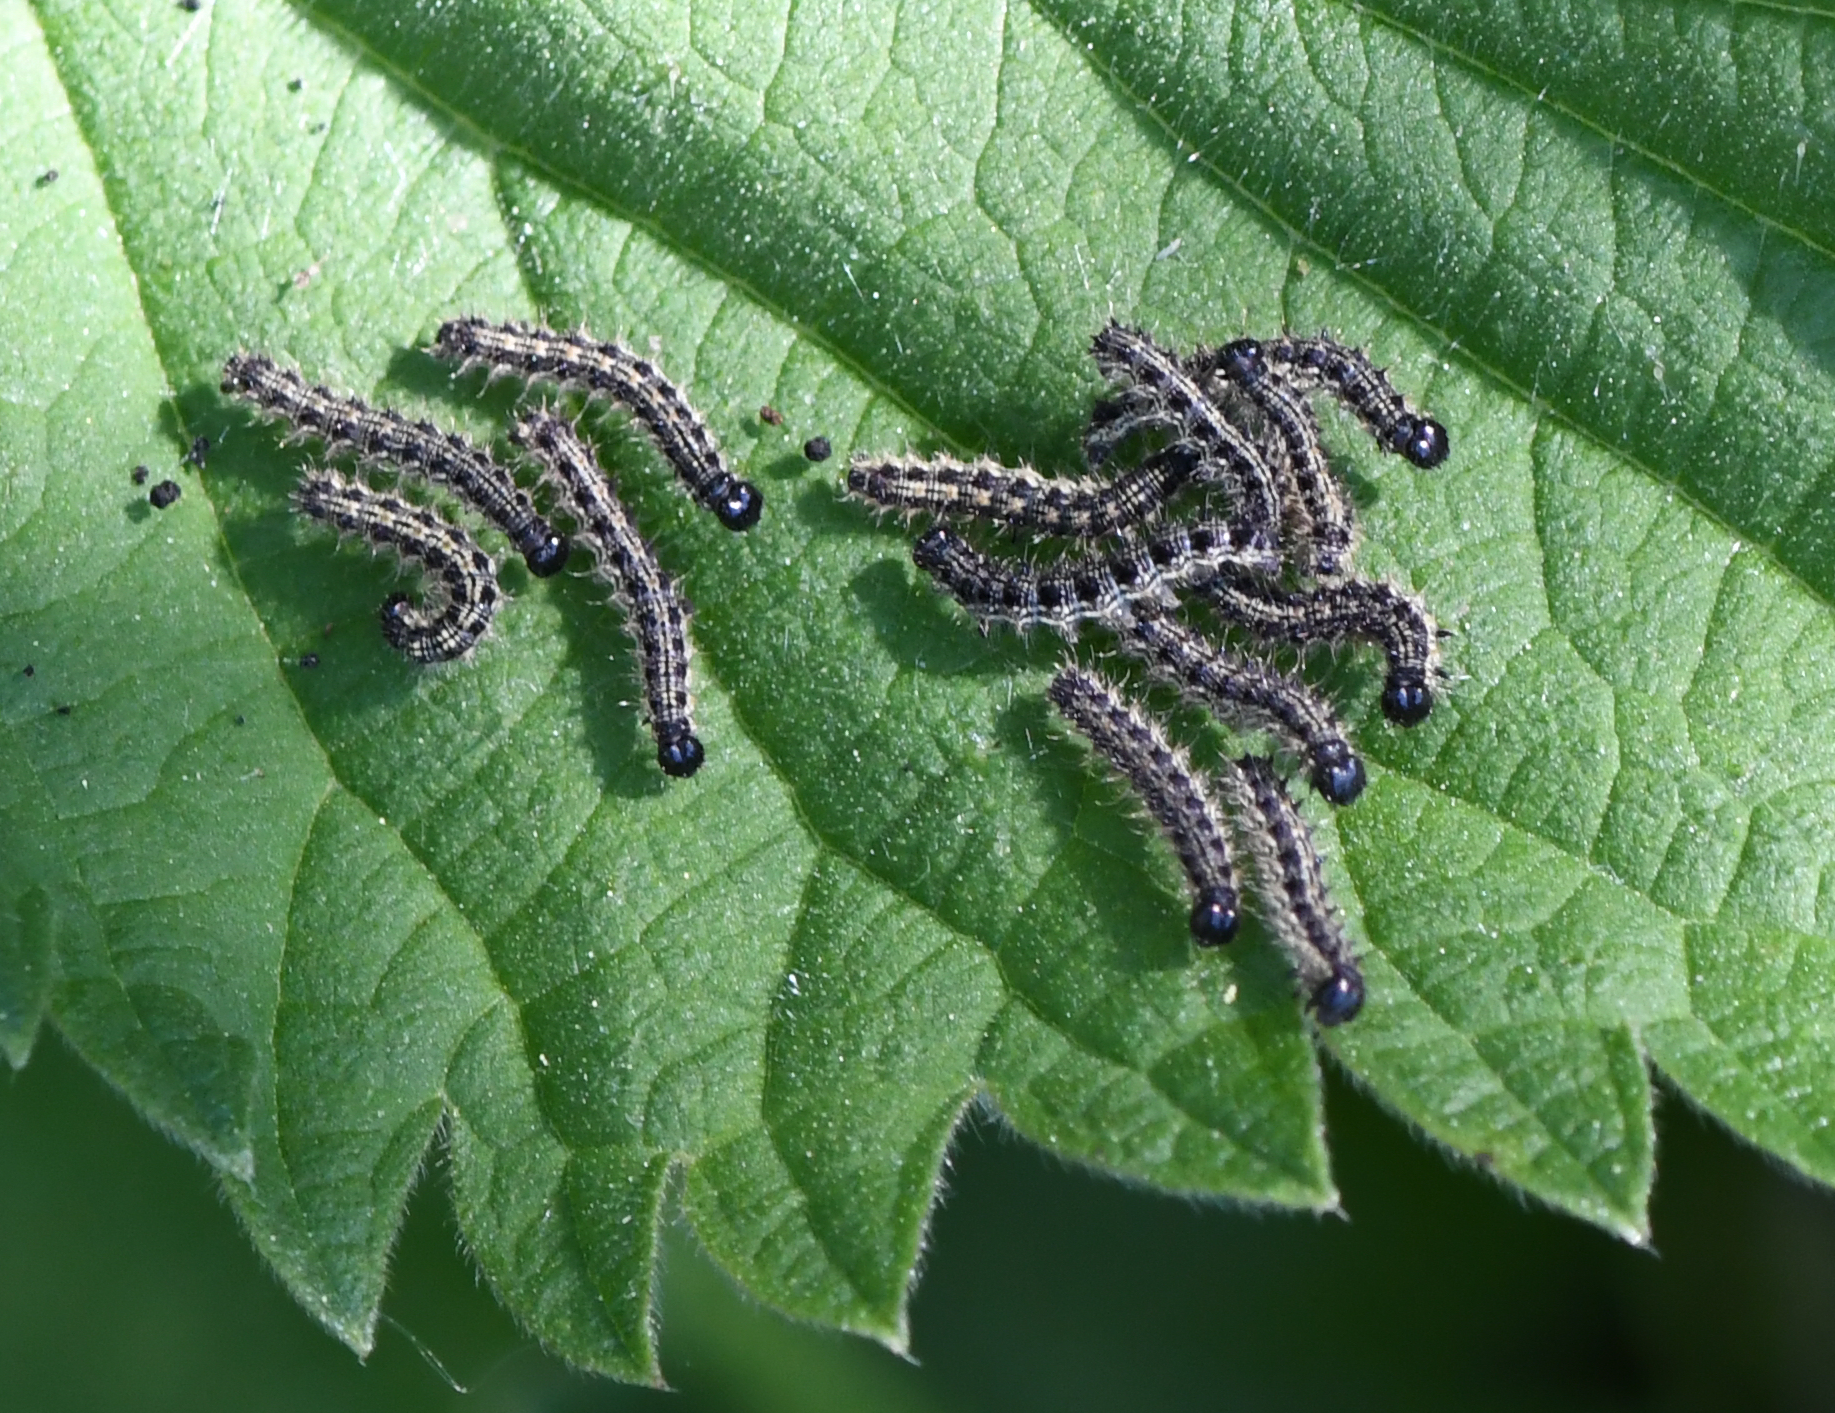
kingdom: Animalia
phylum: Arthropoda
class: Insecta
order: Lepidoptera
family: Nymphalidae
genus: Aglais
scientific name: Aglais urticae
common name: Small tortoiseshell
